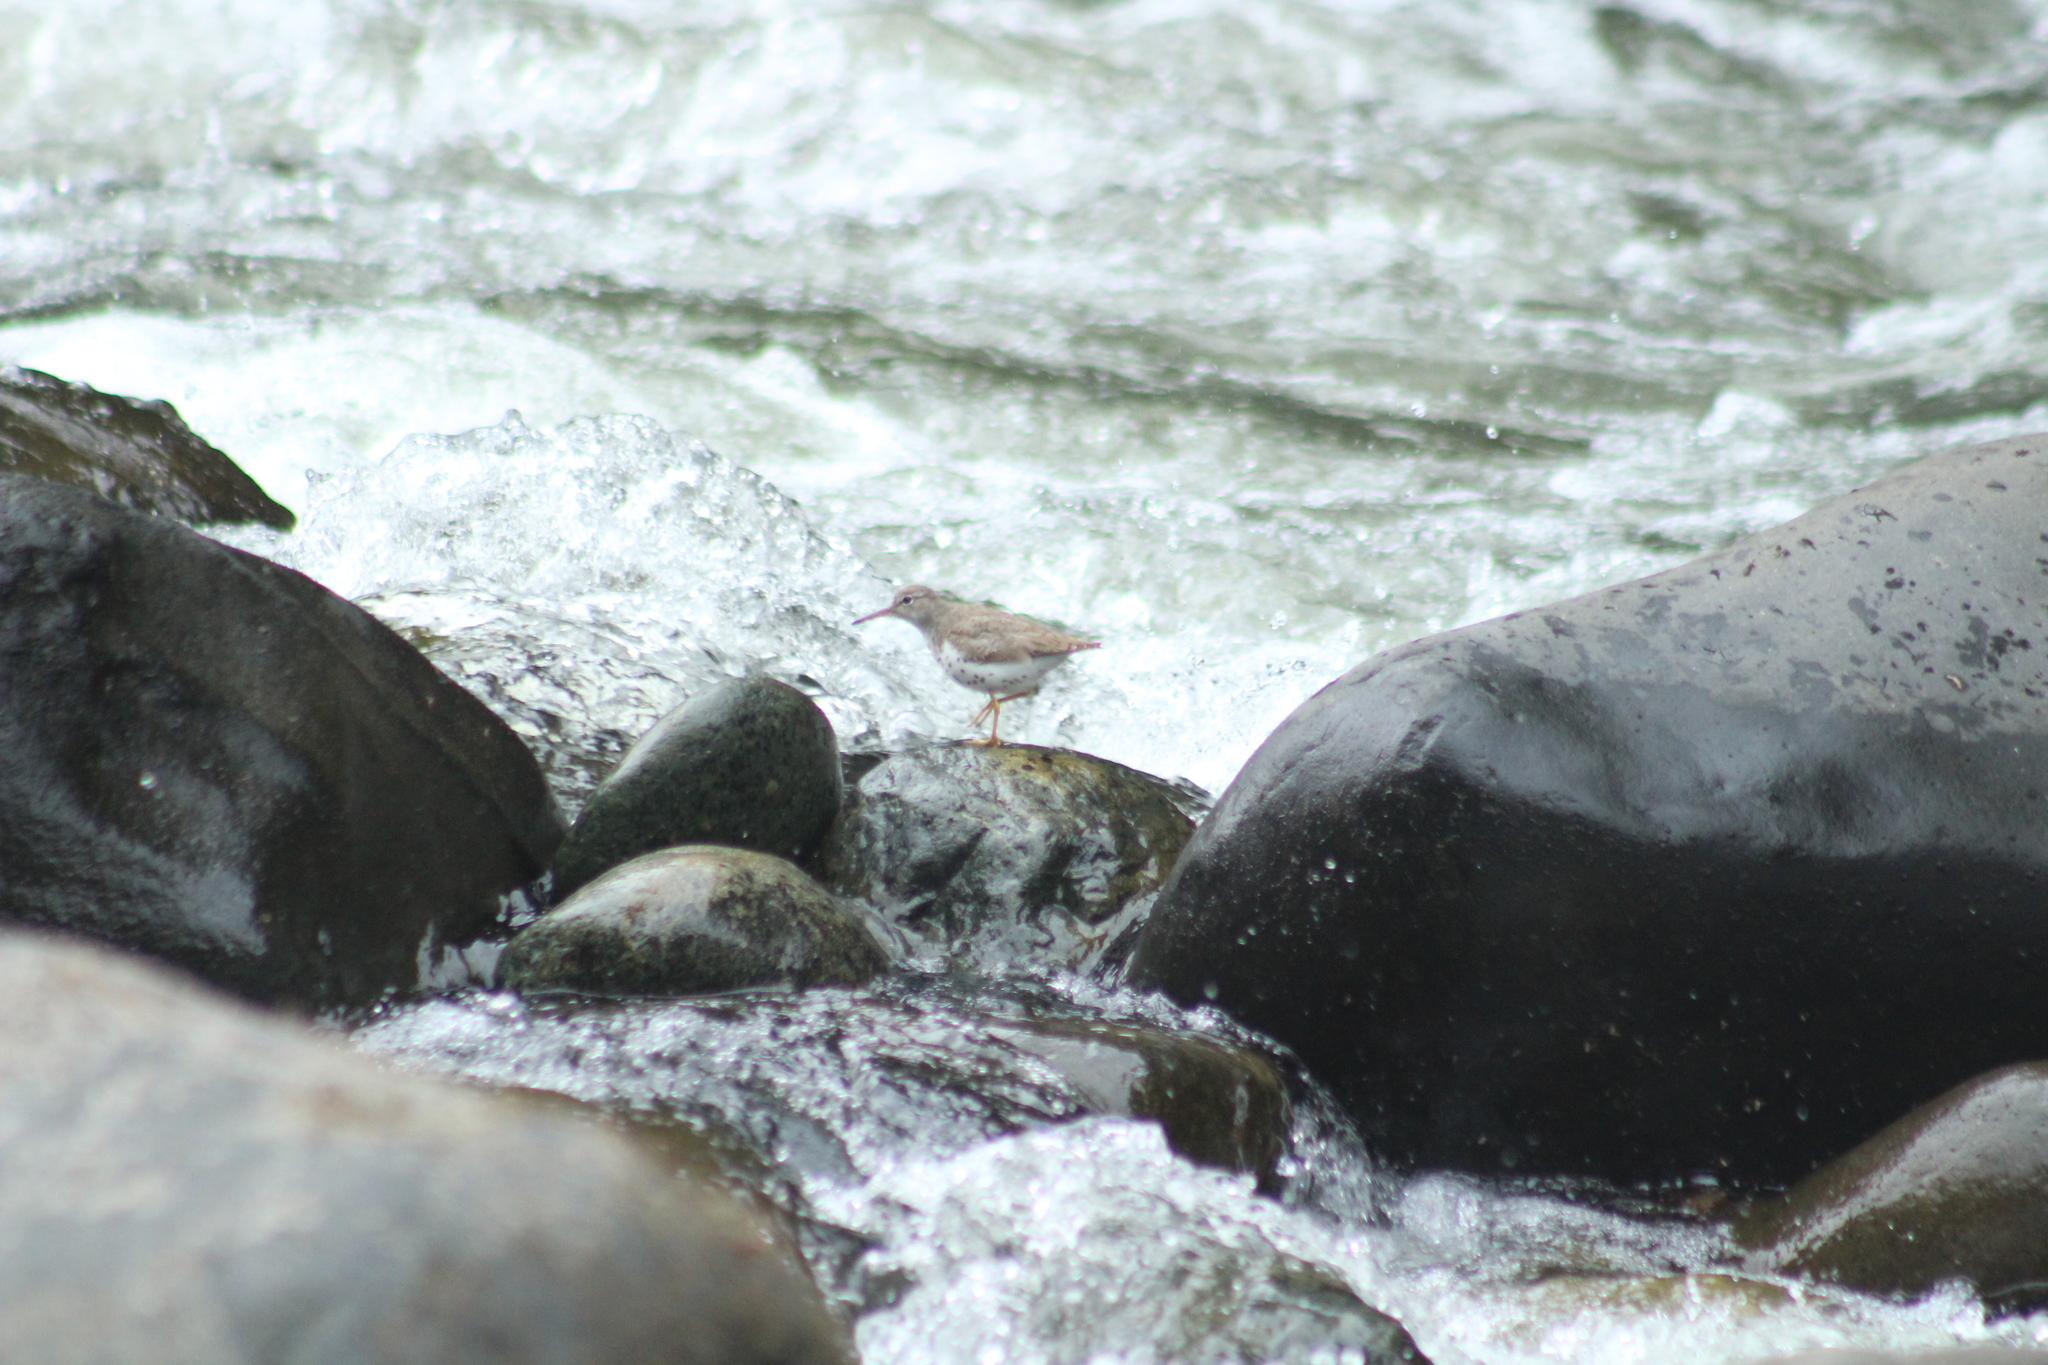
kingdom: Animalia
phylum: Chordata
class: Aves
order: Charadriiformes
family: Scolopacidae
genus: Actitis
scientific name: Actitis macularius
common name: Spotted sandpiper
